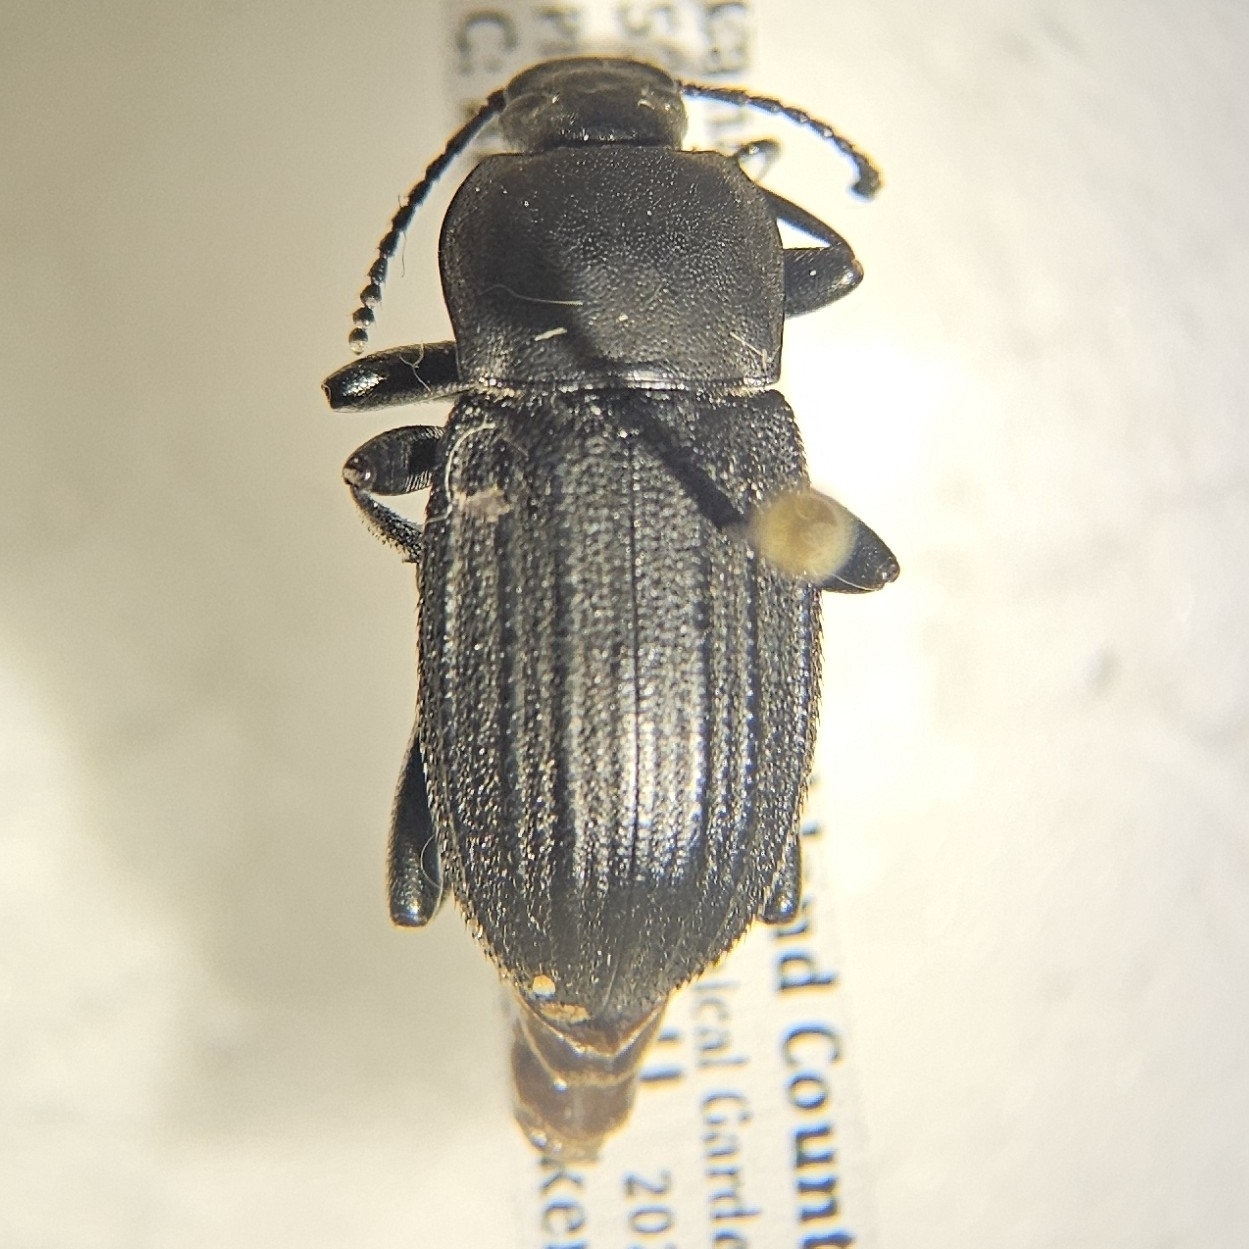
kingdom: Animalia
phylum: Arthropoda
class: Insecta
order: Coleoptera
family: Tenebrionidae
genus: Eleodes
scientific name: Eleodes tricostata
